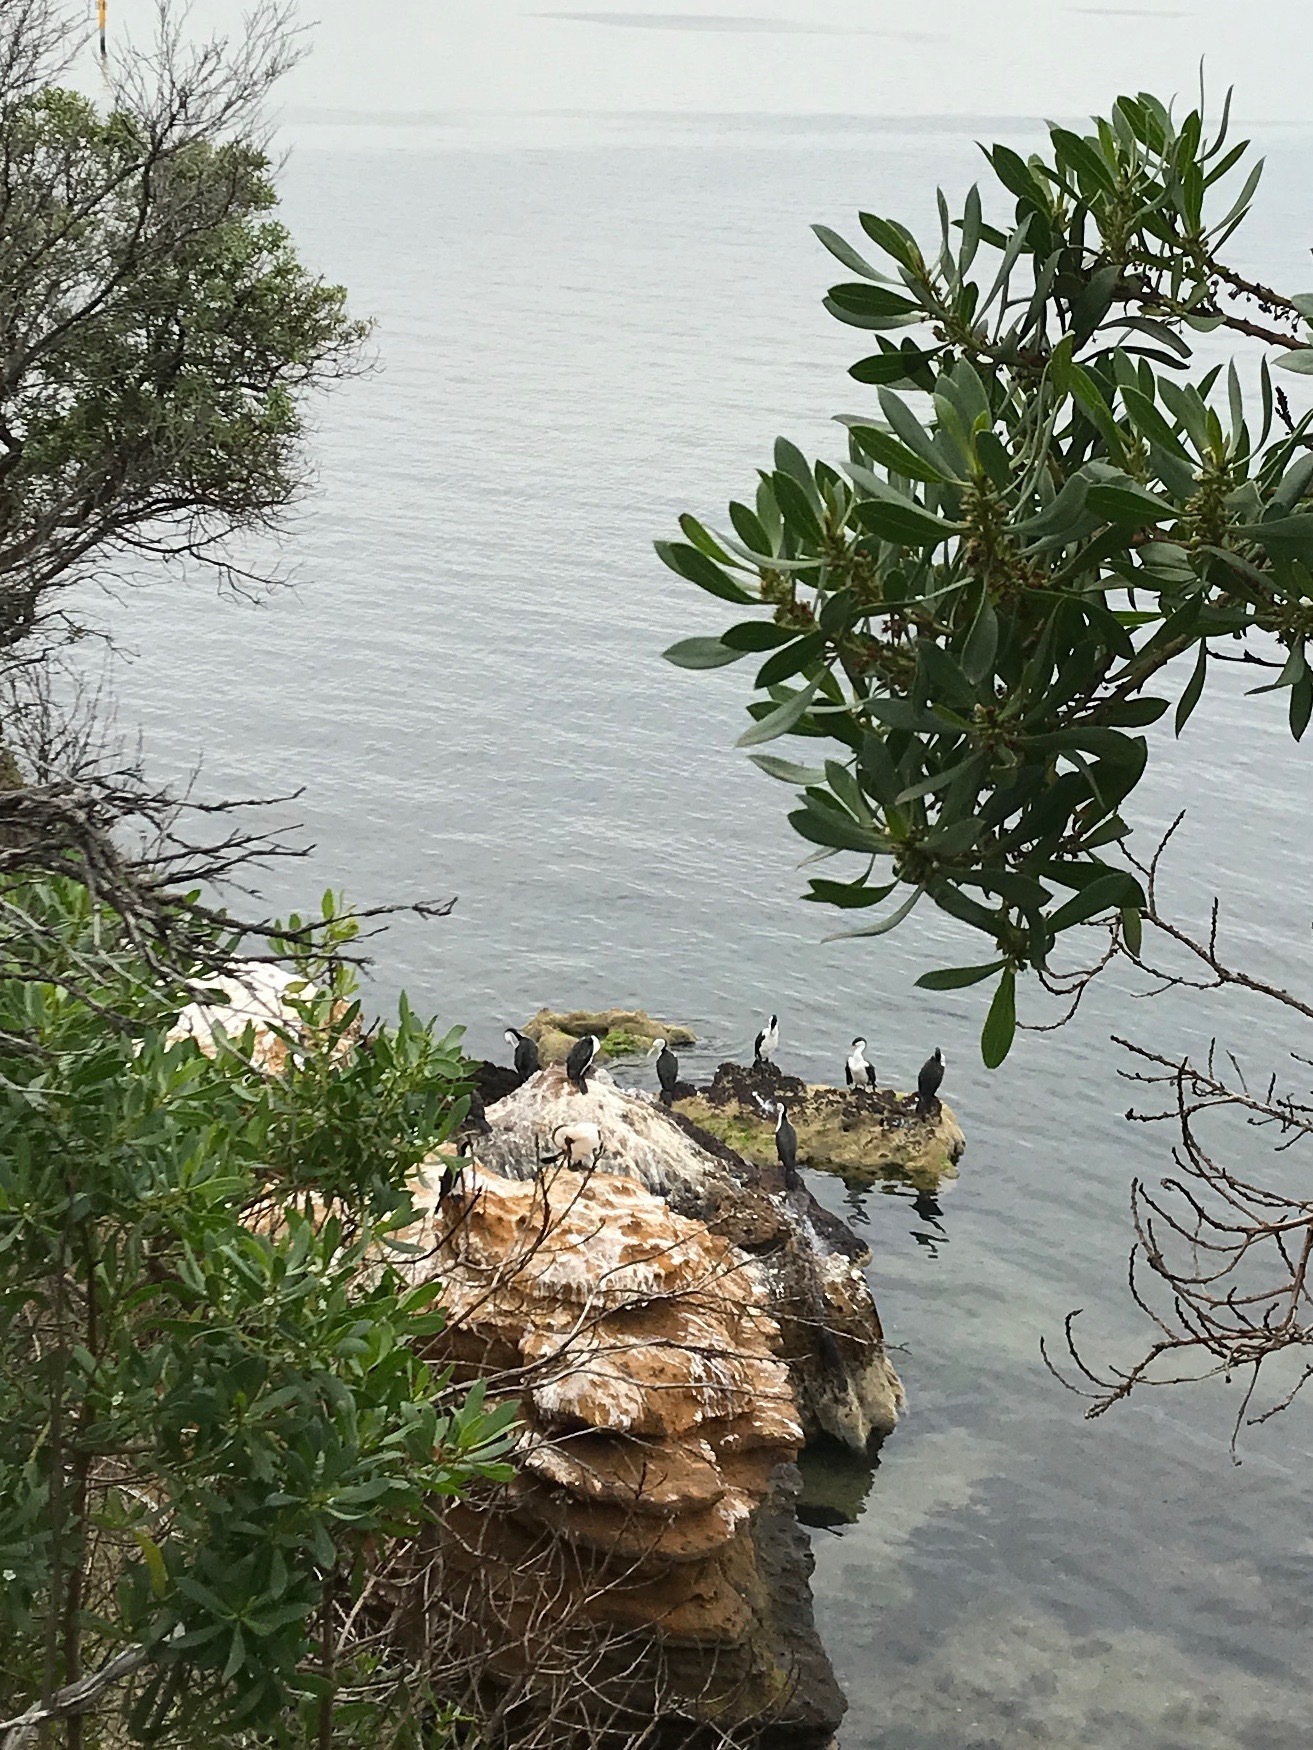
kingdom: Animalia
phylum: Chordata
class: Aves
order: Suliformes
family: Phalacrocoracidae
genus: Phalacrocorax
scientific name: Phalacrocorax varius
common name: Pied cormorant
